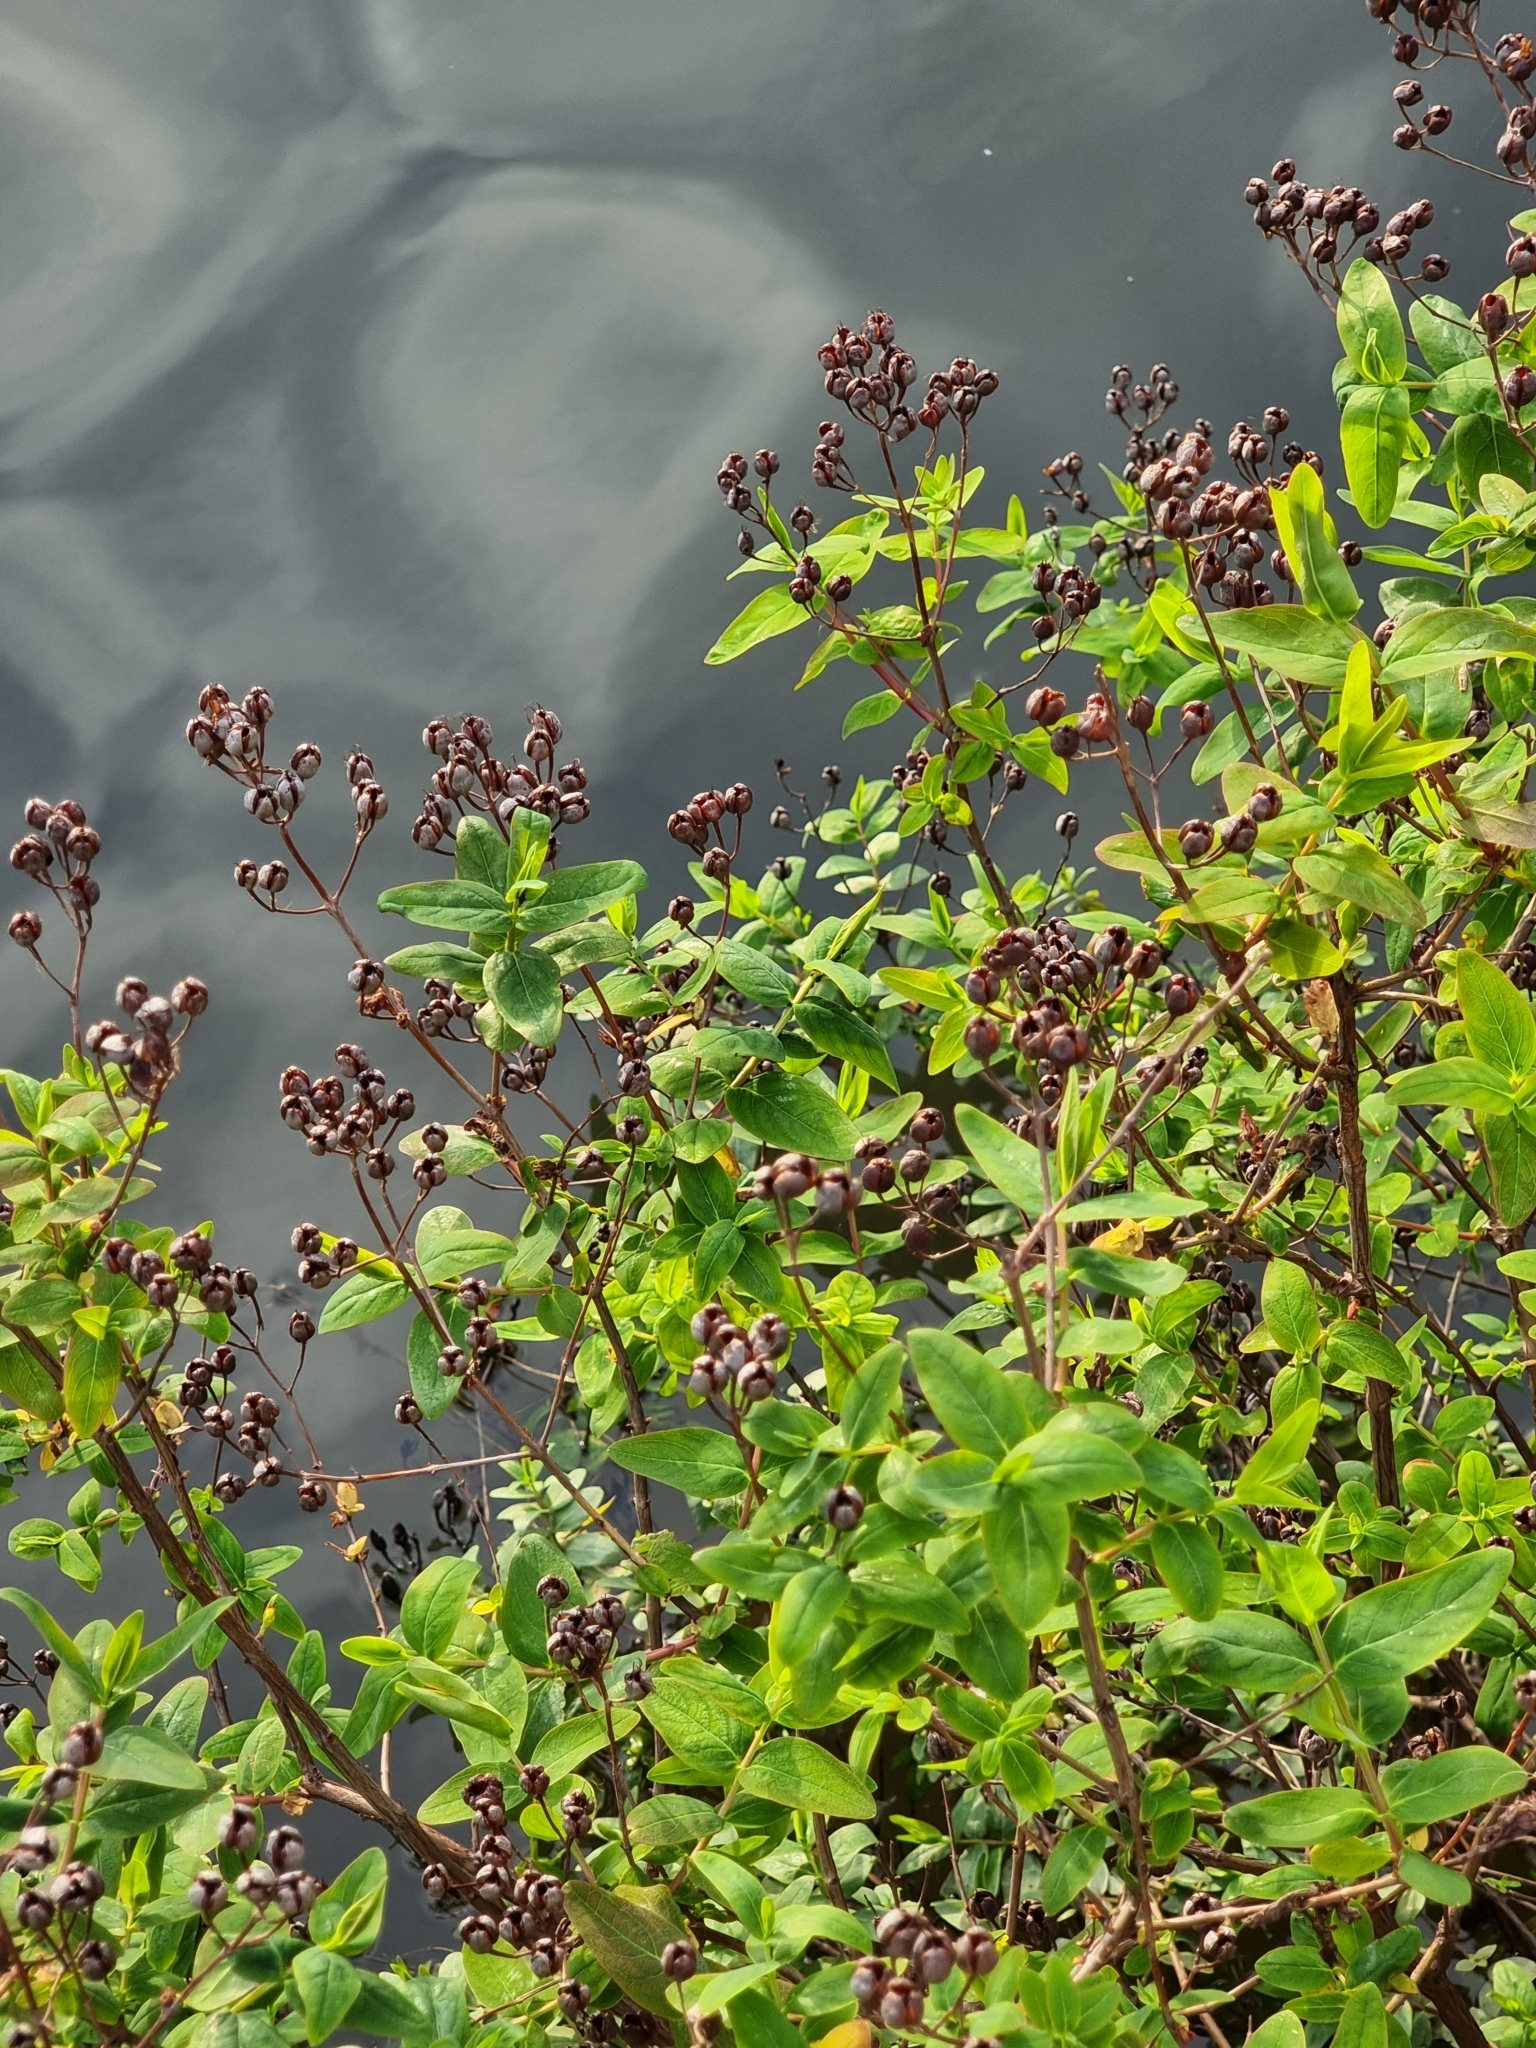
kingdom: Plantae
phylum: Tracheophyta
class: Magnoliopsida
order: Malpighiales
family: Hypericaceae
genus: Hypericum
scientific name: Hypericum hircinum
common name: Stinking tutsan
